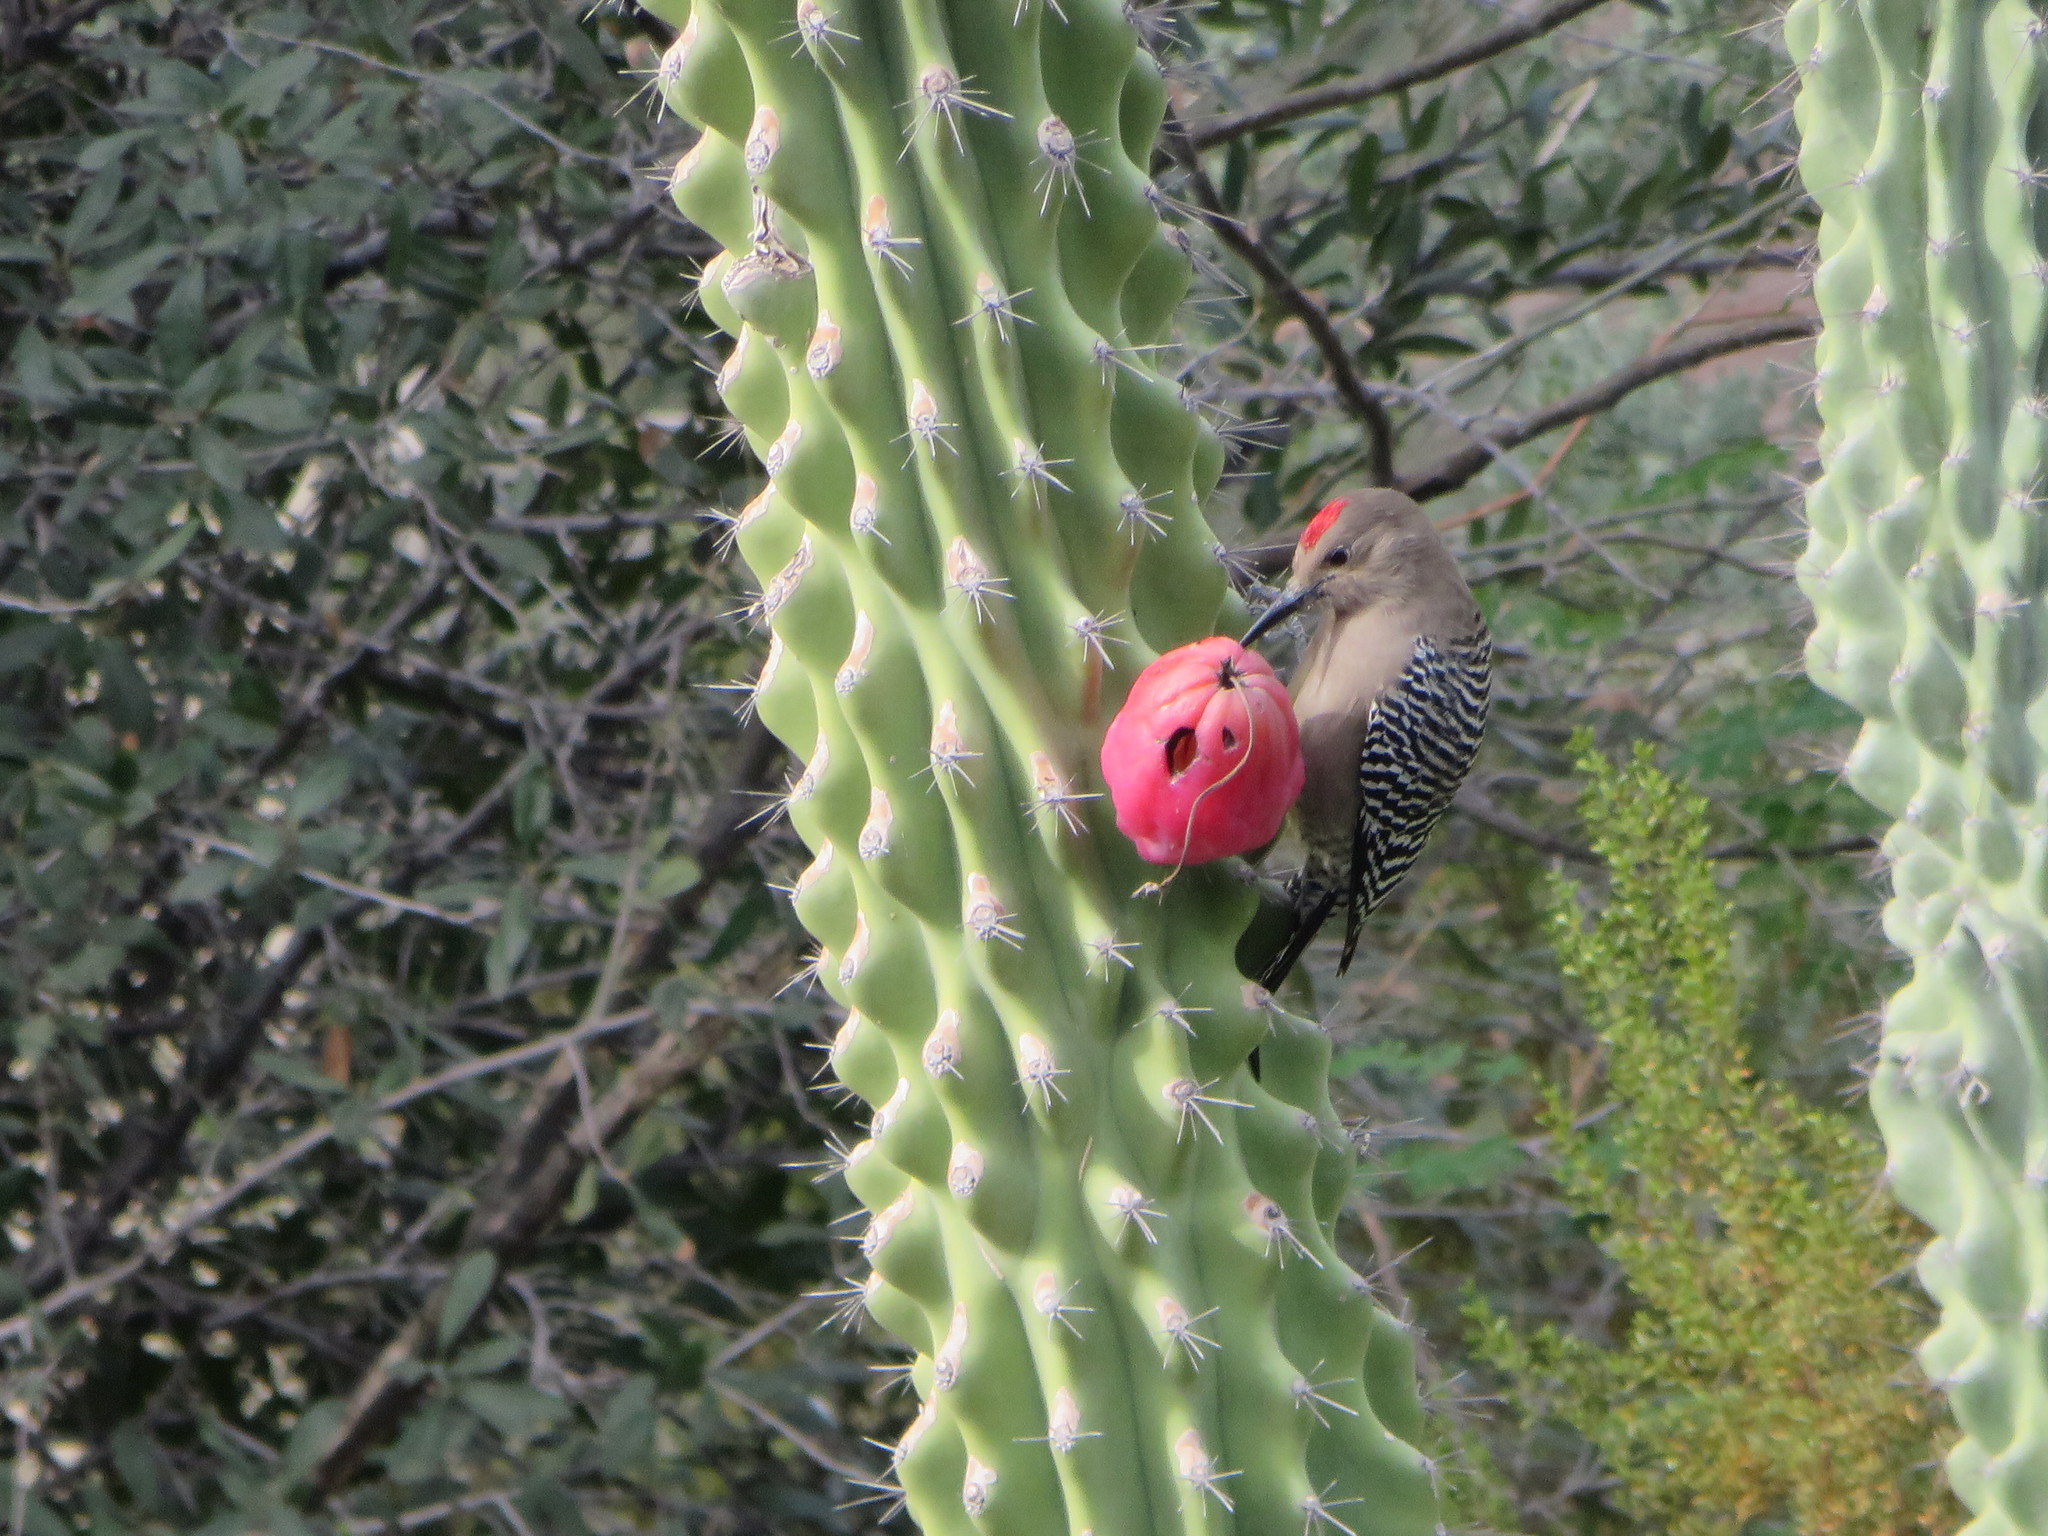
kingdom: Animalia
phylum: Chordata
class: Aves
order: Piciformes
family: Picidae
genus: Melanerpes
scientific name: Melanerpes uropygialis
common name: Gila woodpecker
